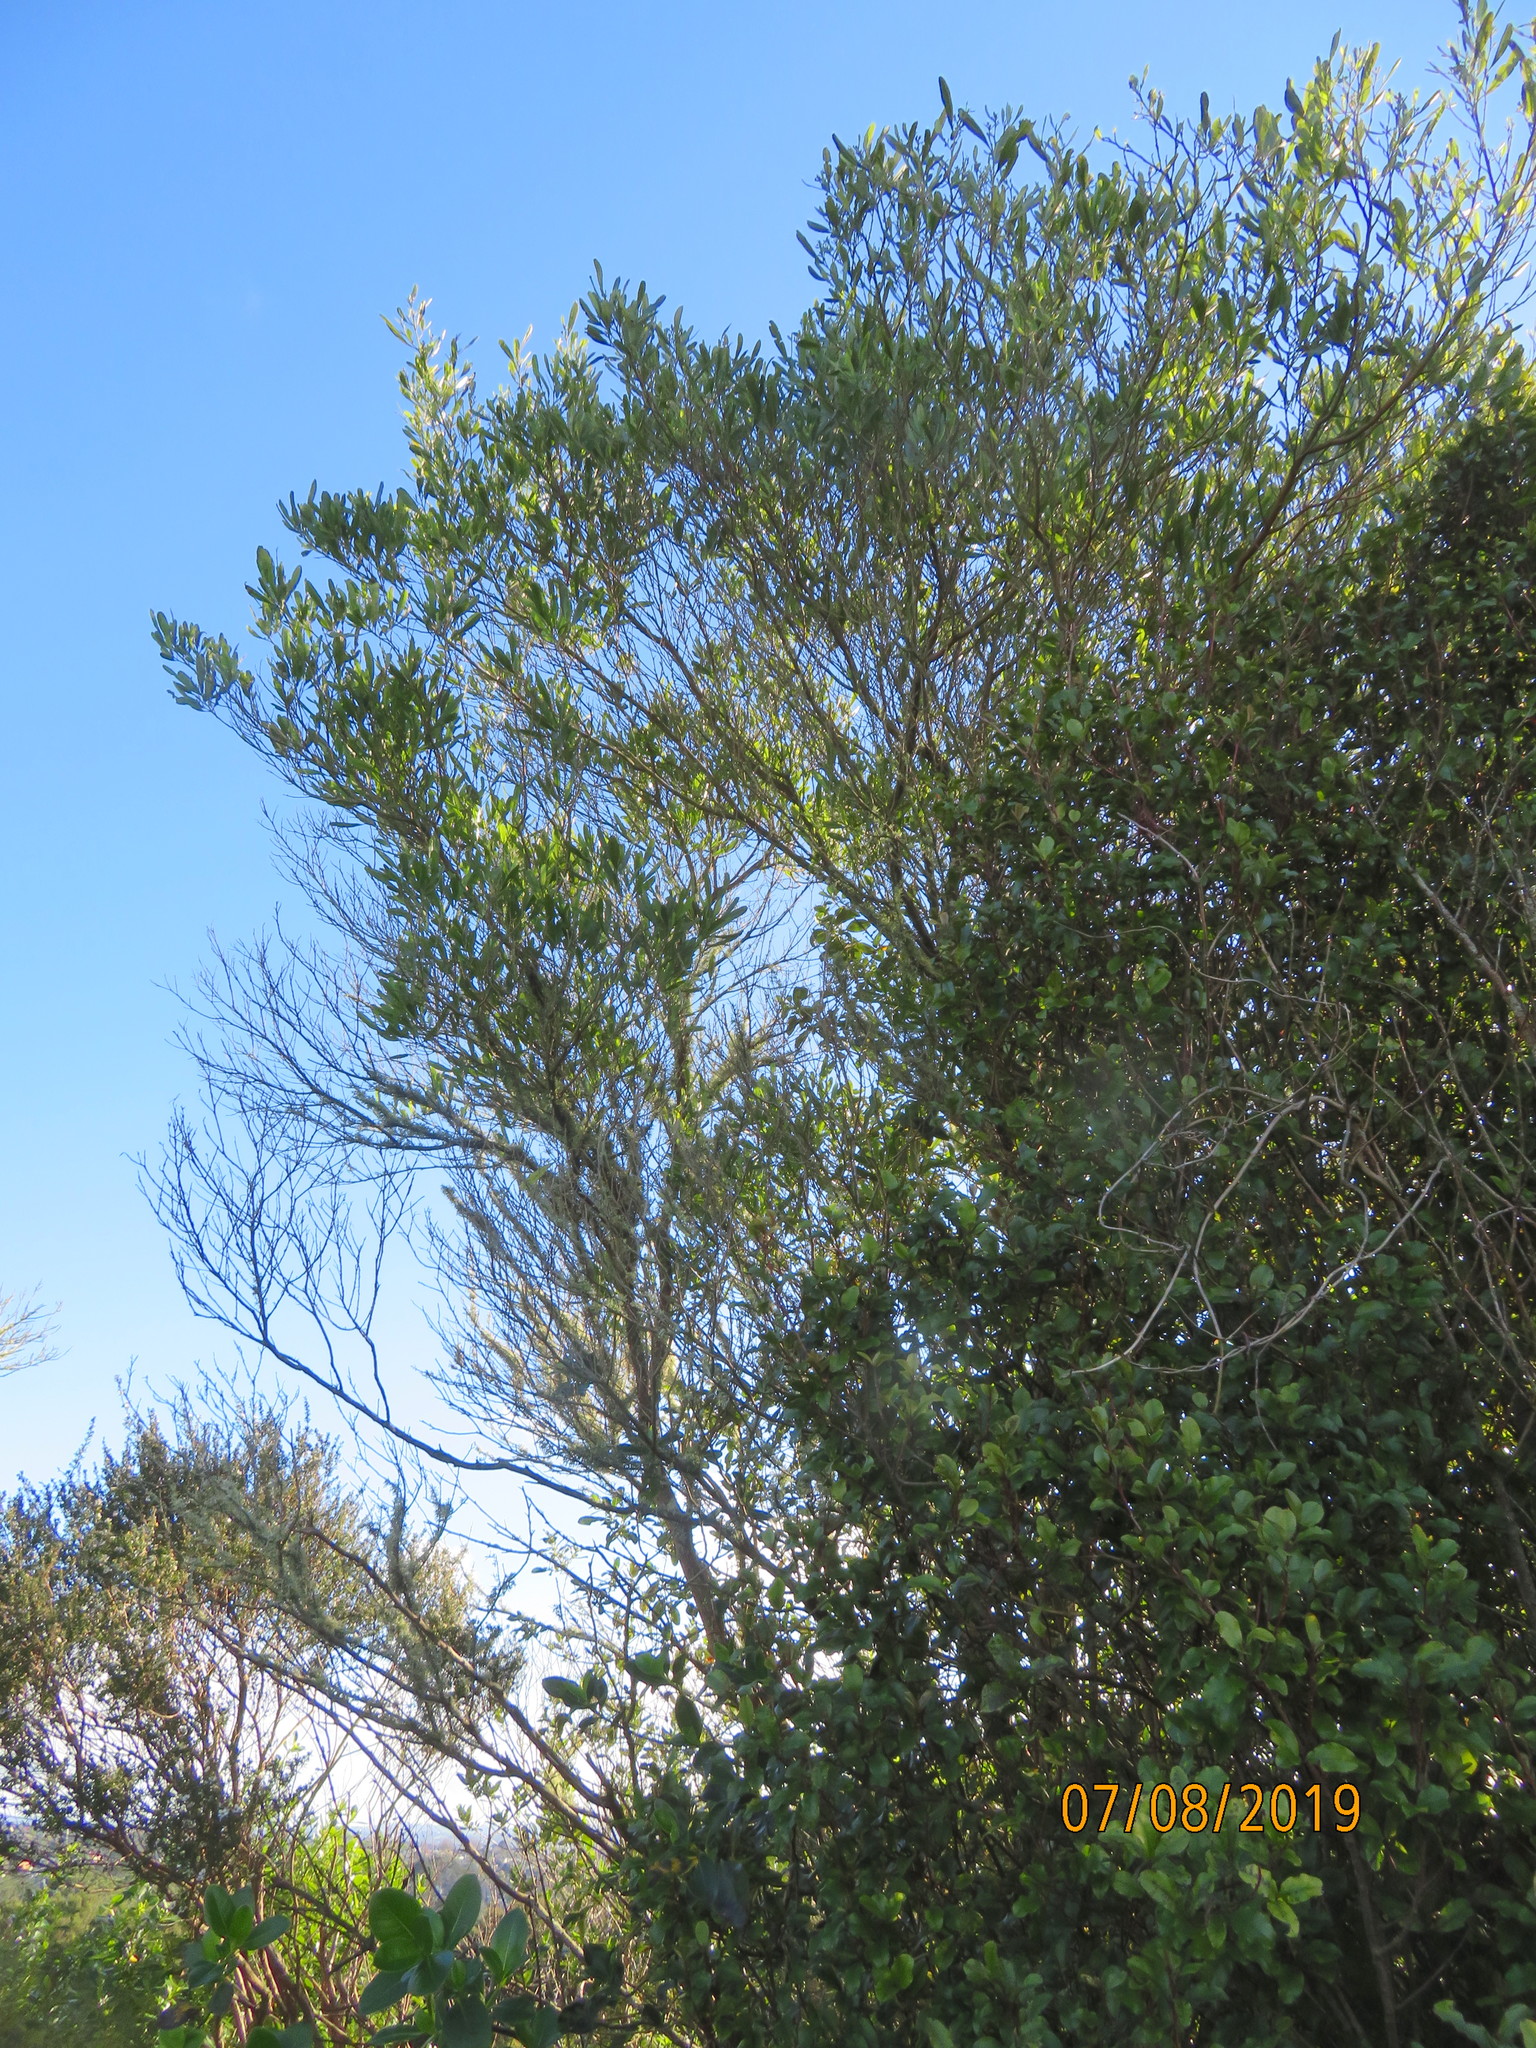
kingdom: Plantae
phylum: Tracheophyta
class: Magnoliopsida
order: Sapindales
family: Sapindaceae
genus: Dodonaea
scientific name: Dodonaea viscosa
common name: Hopbush
